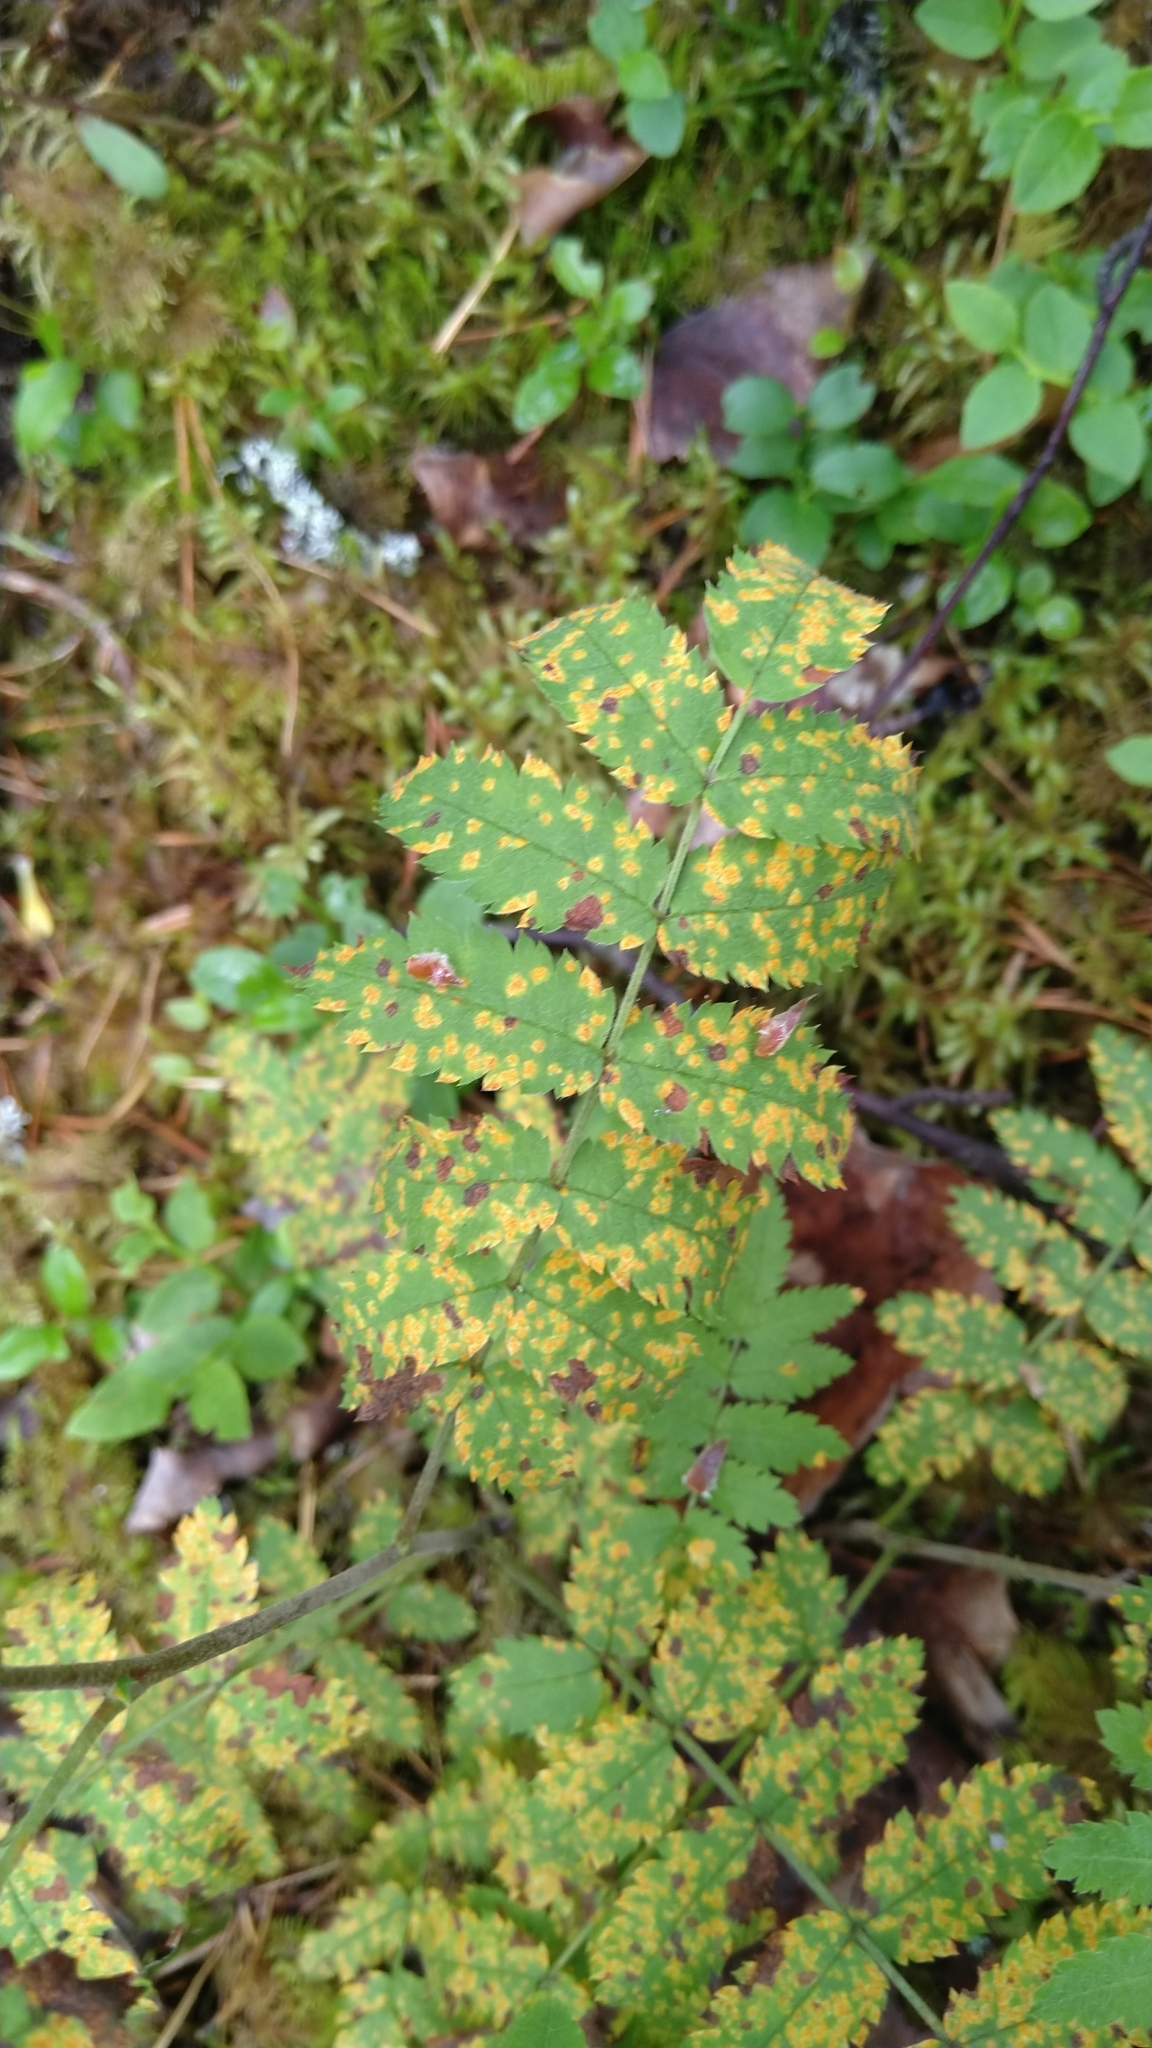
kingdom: Fungi
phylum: Basidiomycota
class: Pucciniomycetes
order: Pucciniales
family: Gymnosporangiaceae
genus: Gymnosporangium
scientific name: Gymnosporangium cornutum
